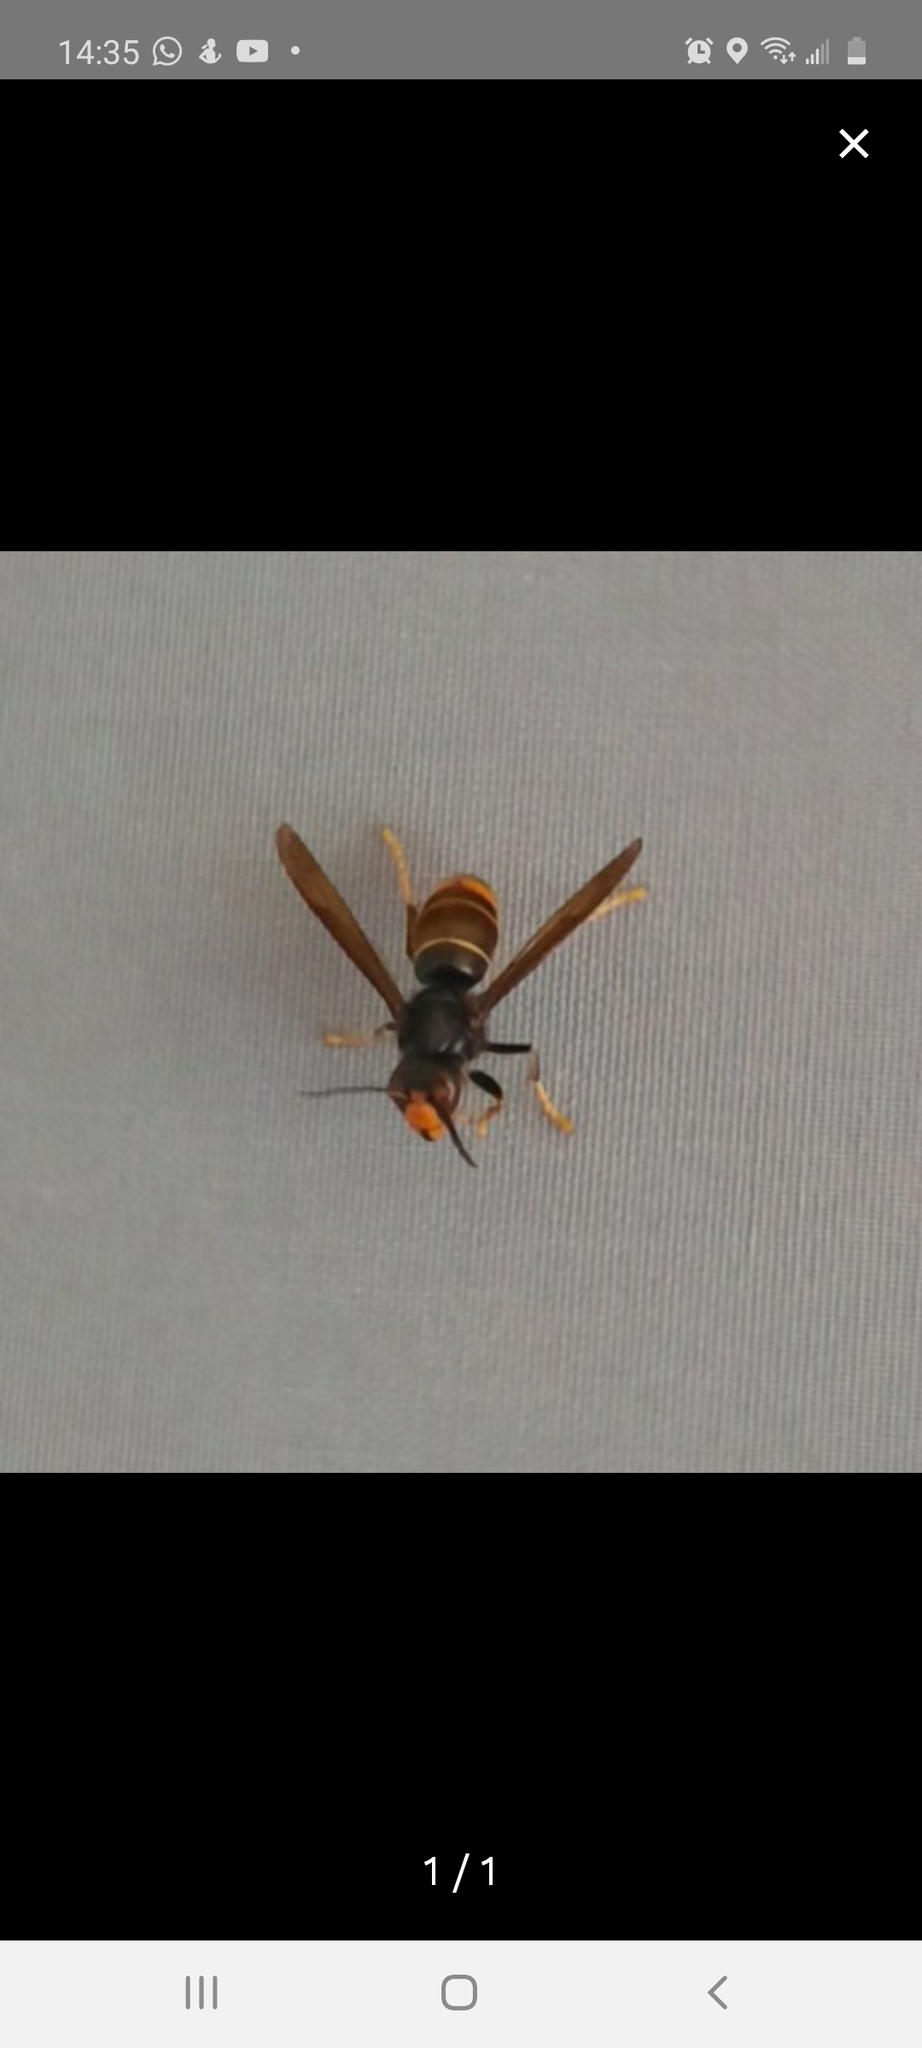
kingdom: Animalia
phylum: Arthropoda
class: Insecta
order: Hymenoptera
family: Vespidae
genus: Vespa
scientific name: Vespa velutina
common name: Asian hornet
